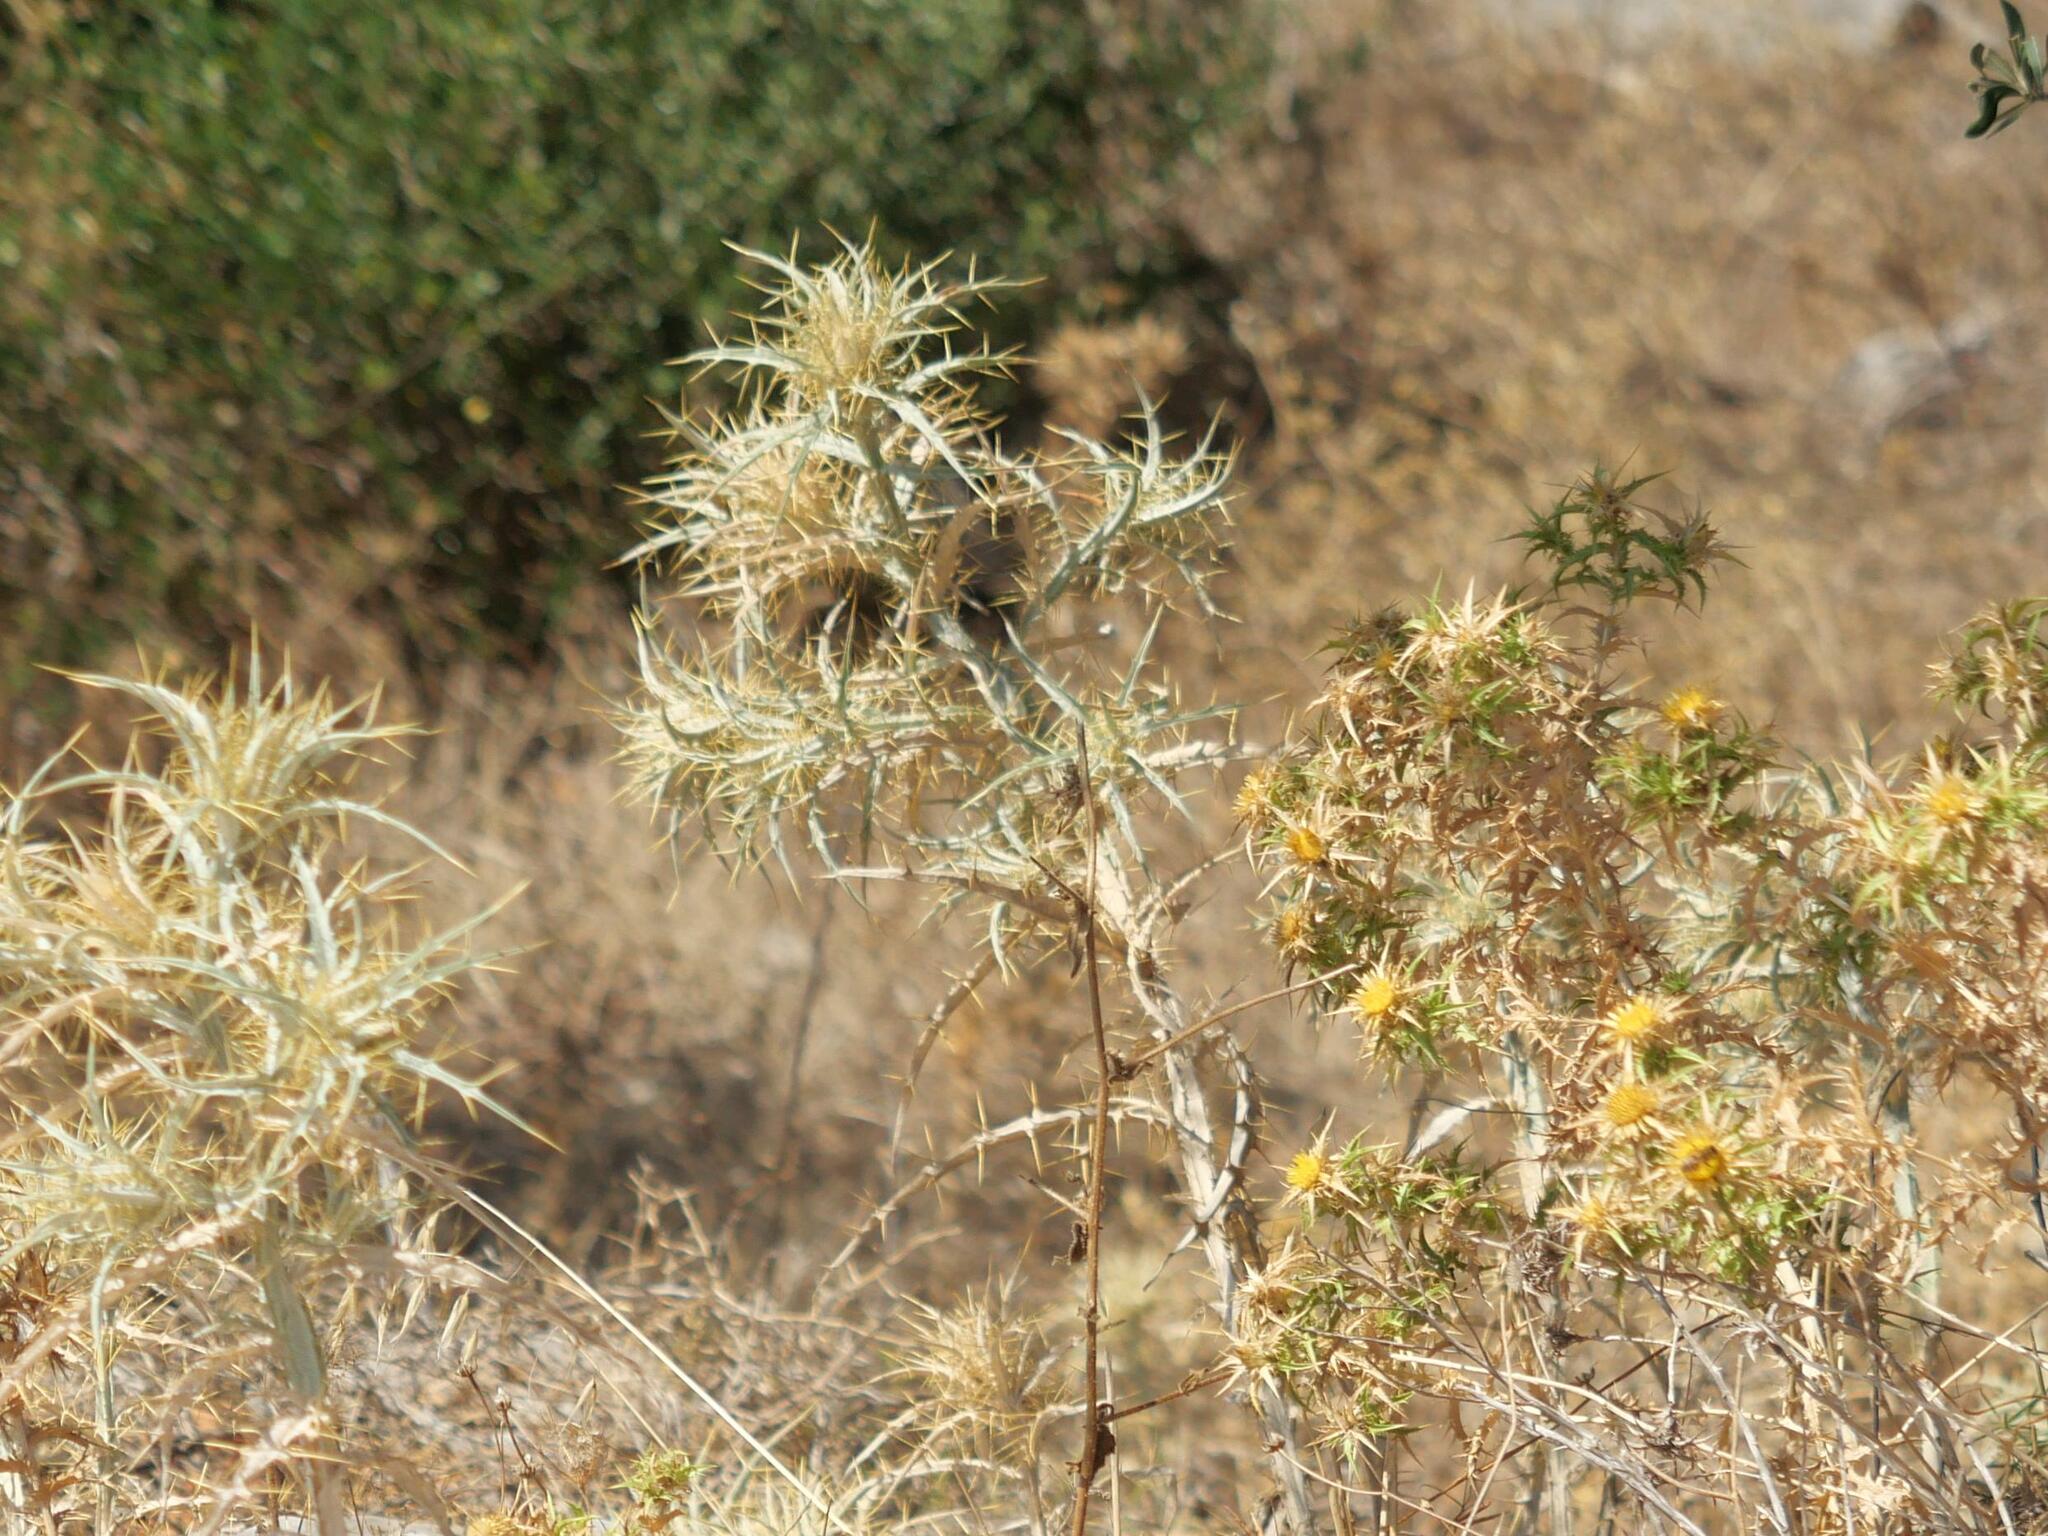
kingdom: Plantae
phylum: Tracheophyta
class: Magnoliopsida
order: Asterales
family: Asteraceae
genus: Picnomon
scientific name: Picnomon acarna
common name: Soldier thistle
